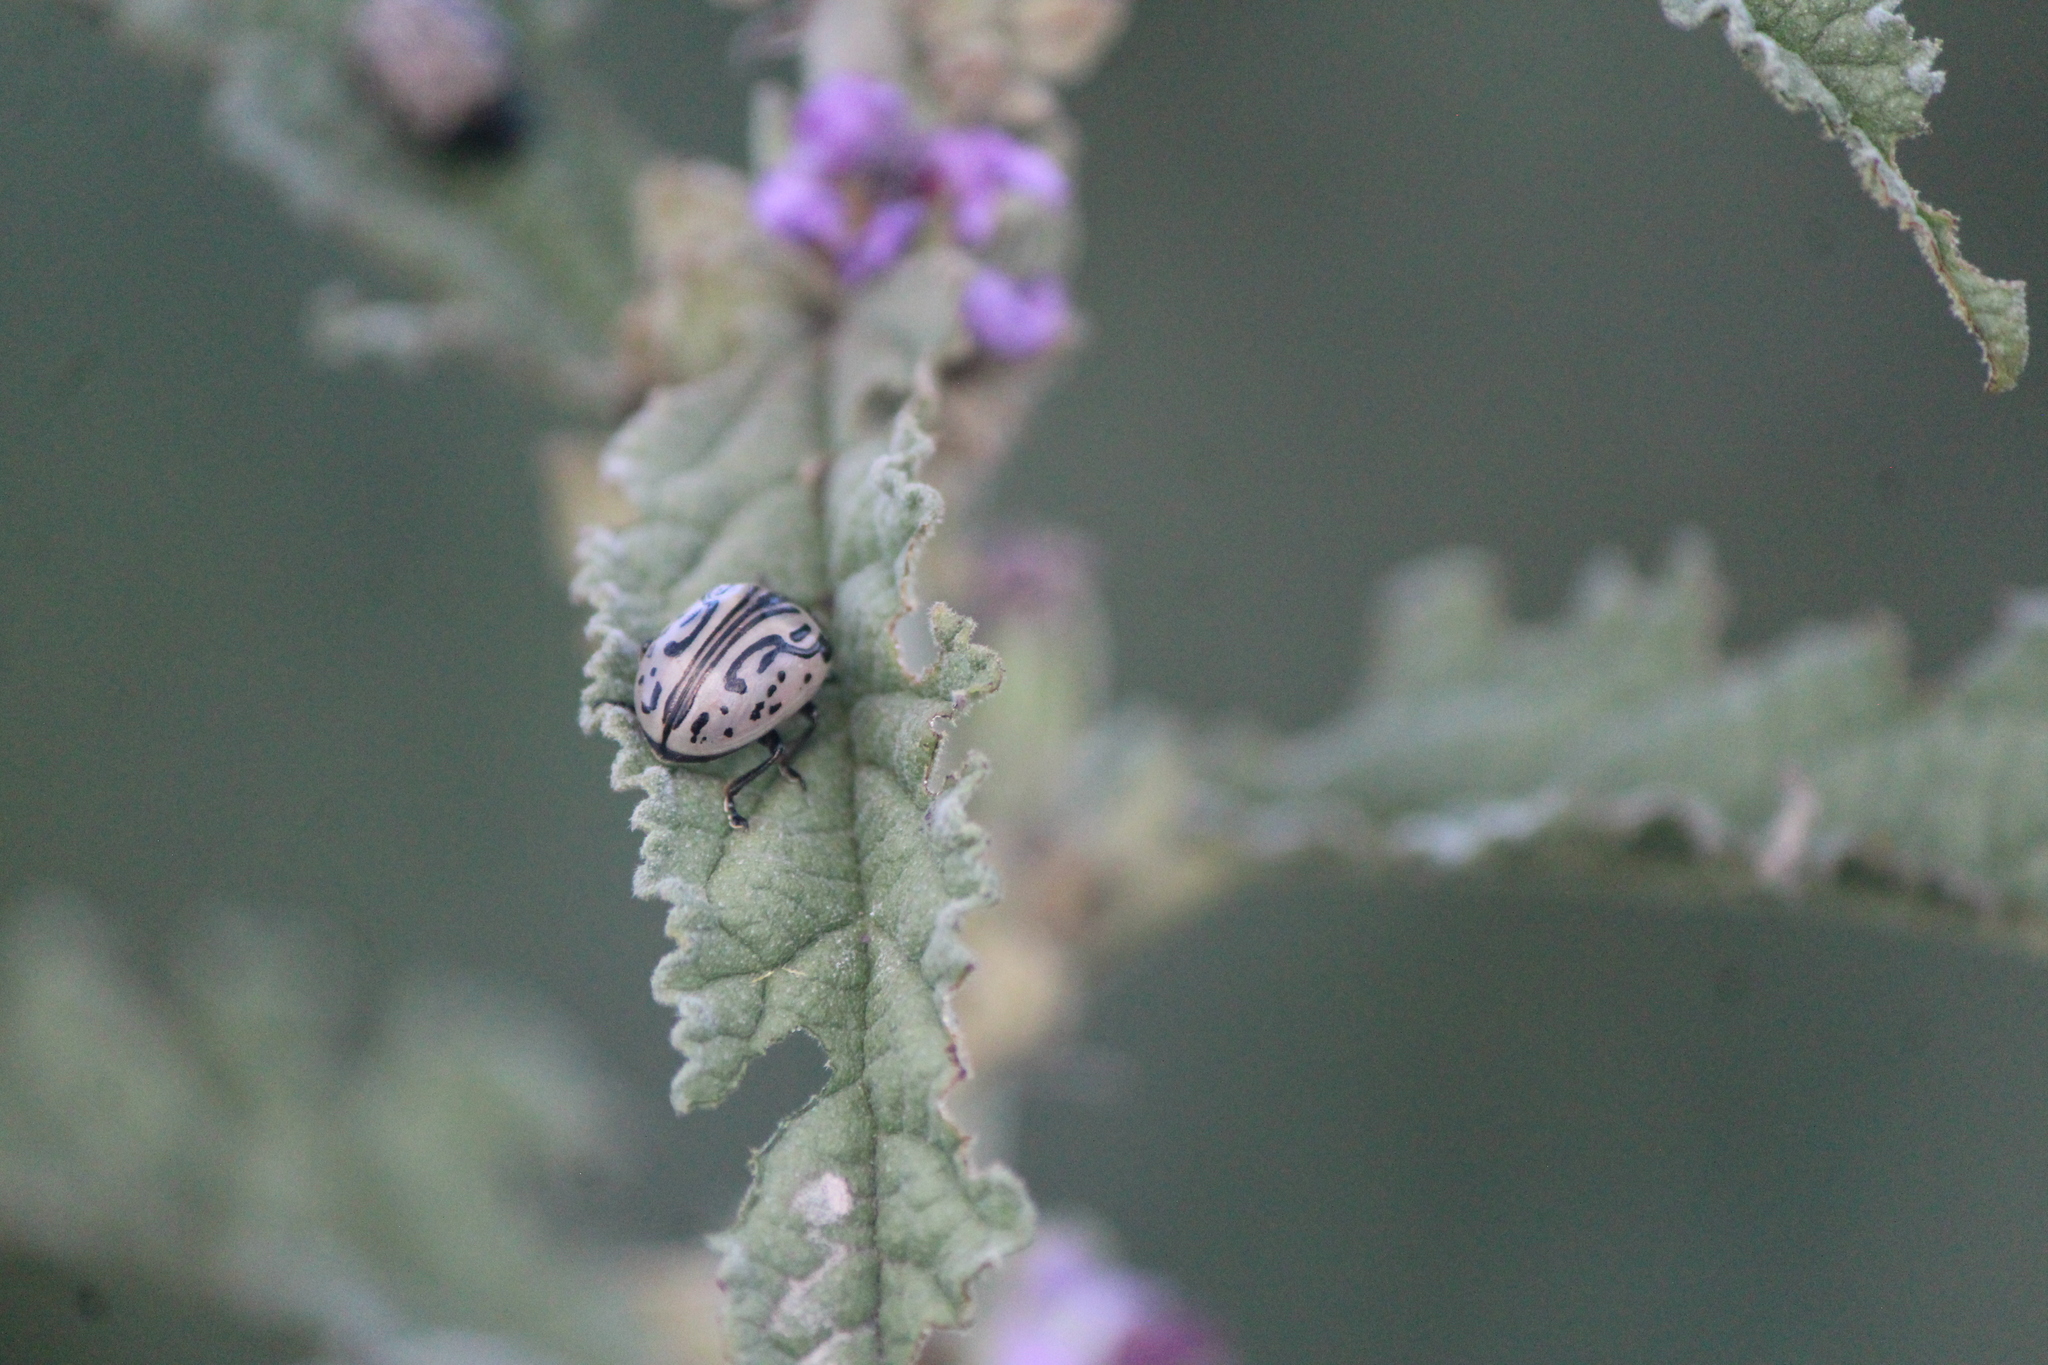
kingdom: Animalia
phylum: Arthropoda
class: Insecta
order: Coleoptera
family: Chrysomelidae
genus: Calligrapha
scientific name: Calligrapha dislocata
